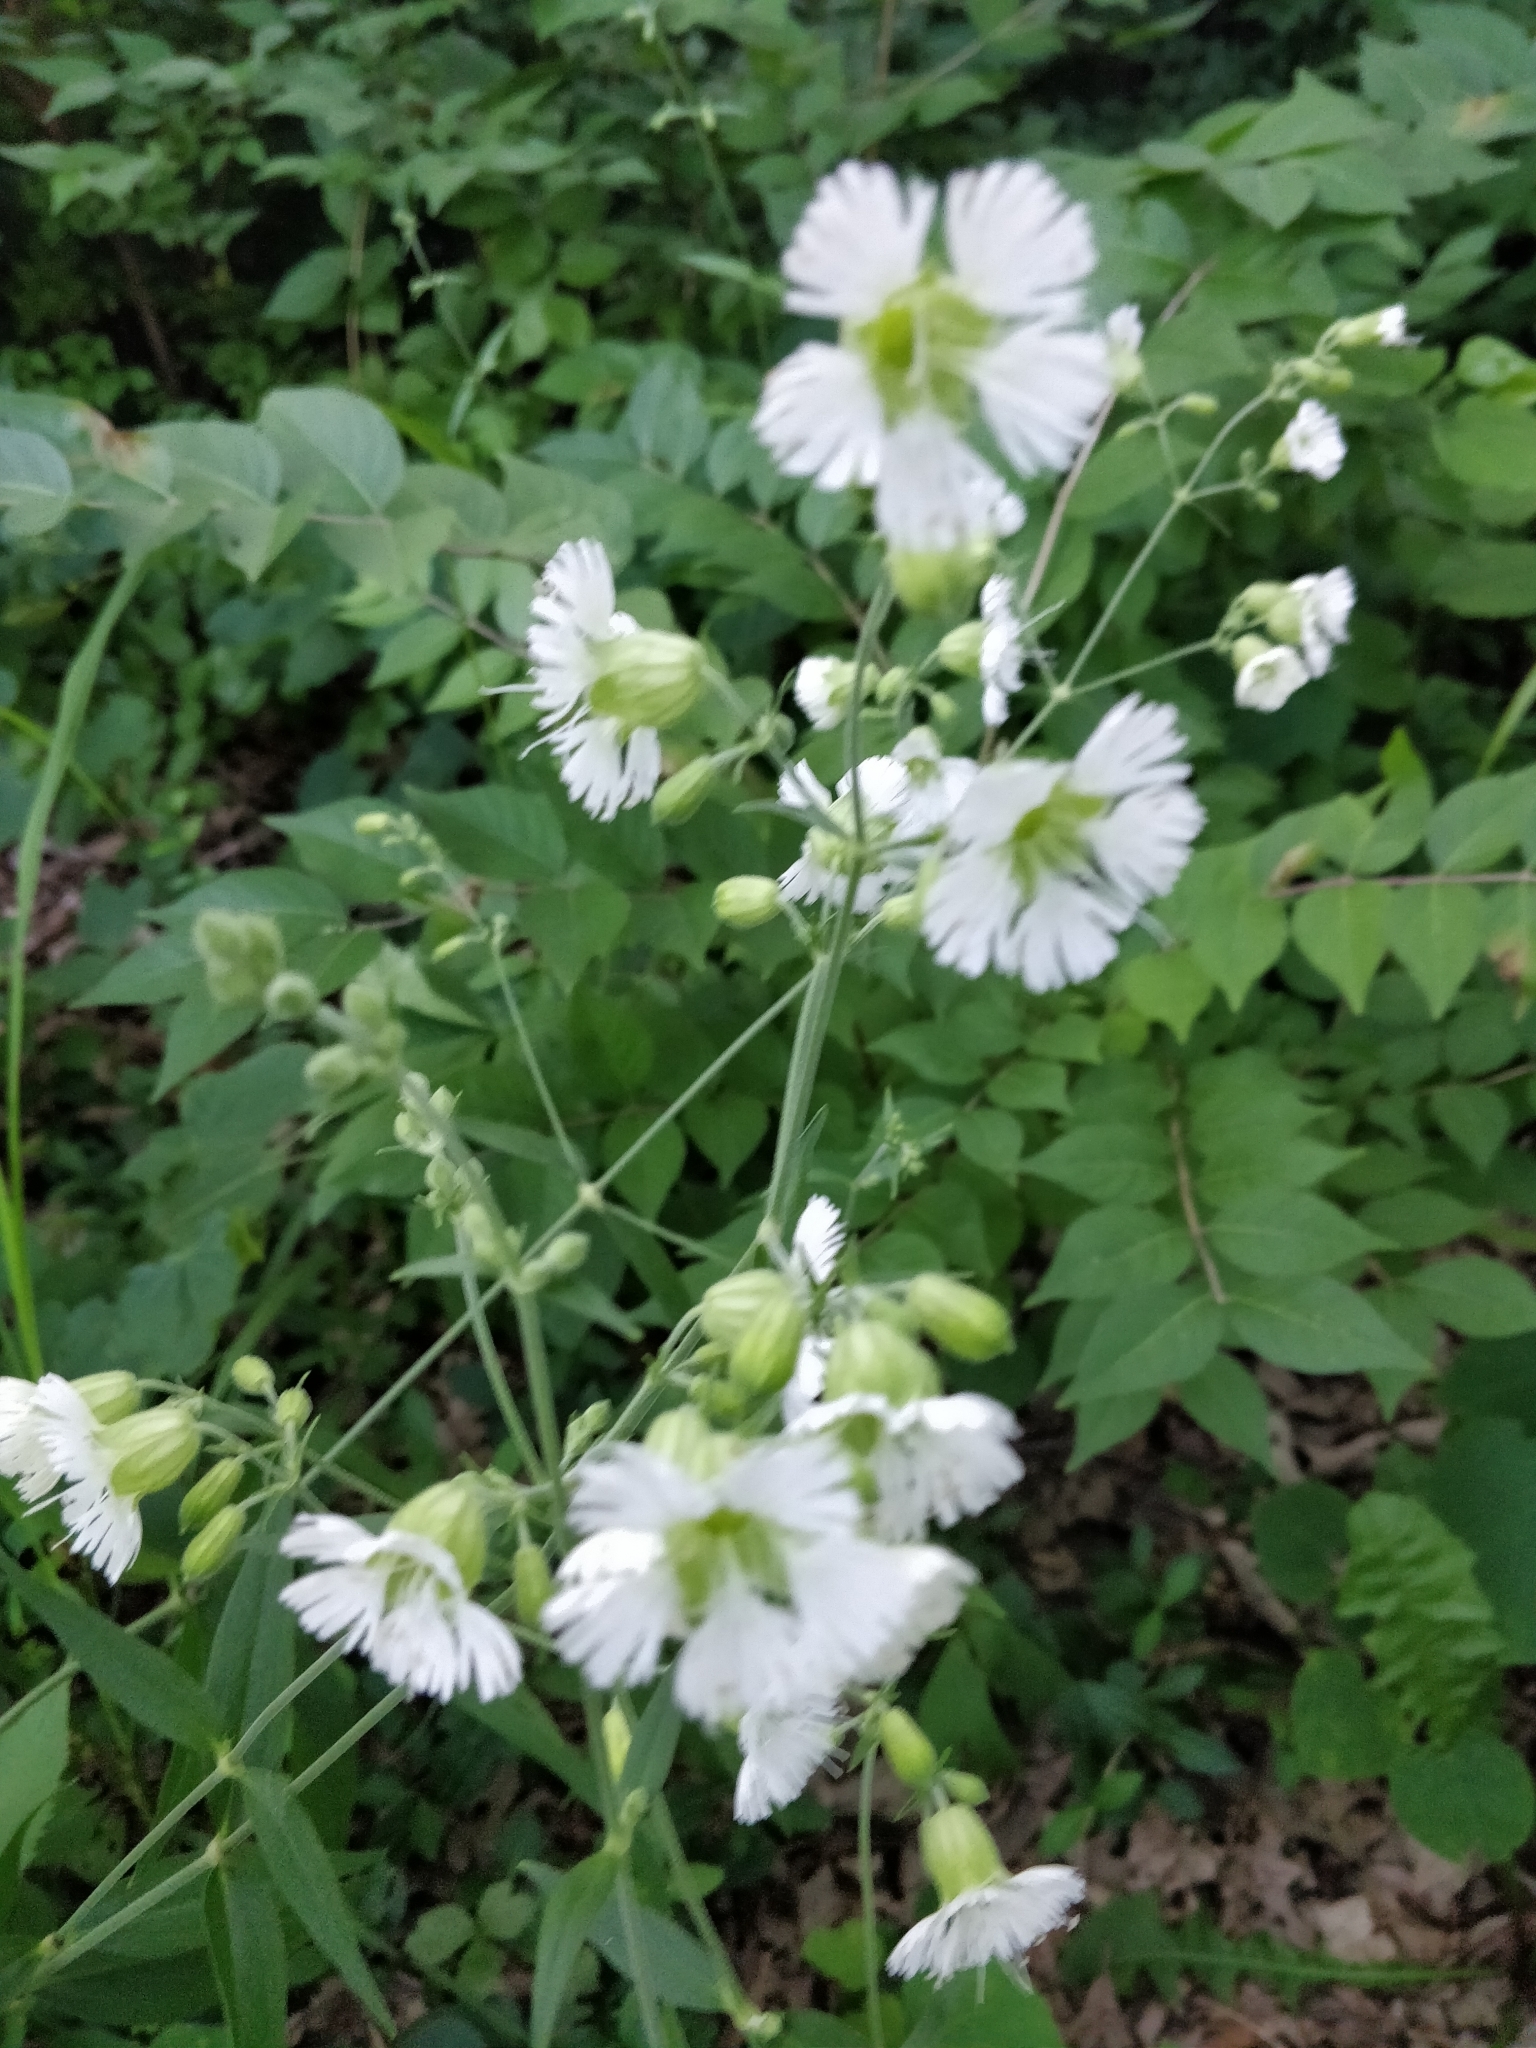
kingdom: Plantae
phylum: Tracheophyta
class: Magnoliopsida
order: Caryophyllales
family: Caryophyllaceae
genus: Silene
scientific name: Silene stellata
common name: Starry campion
